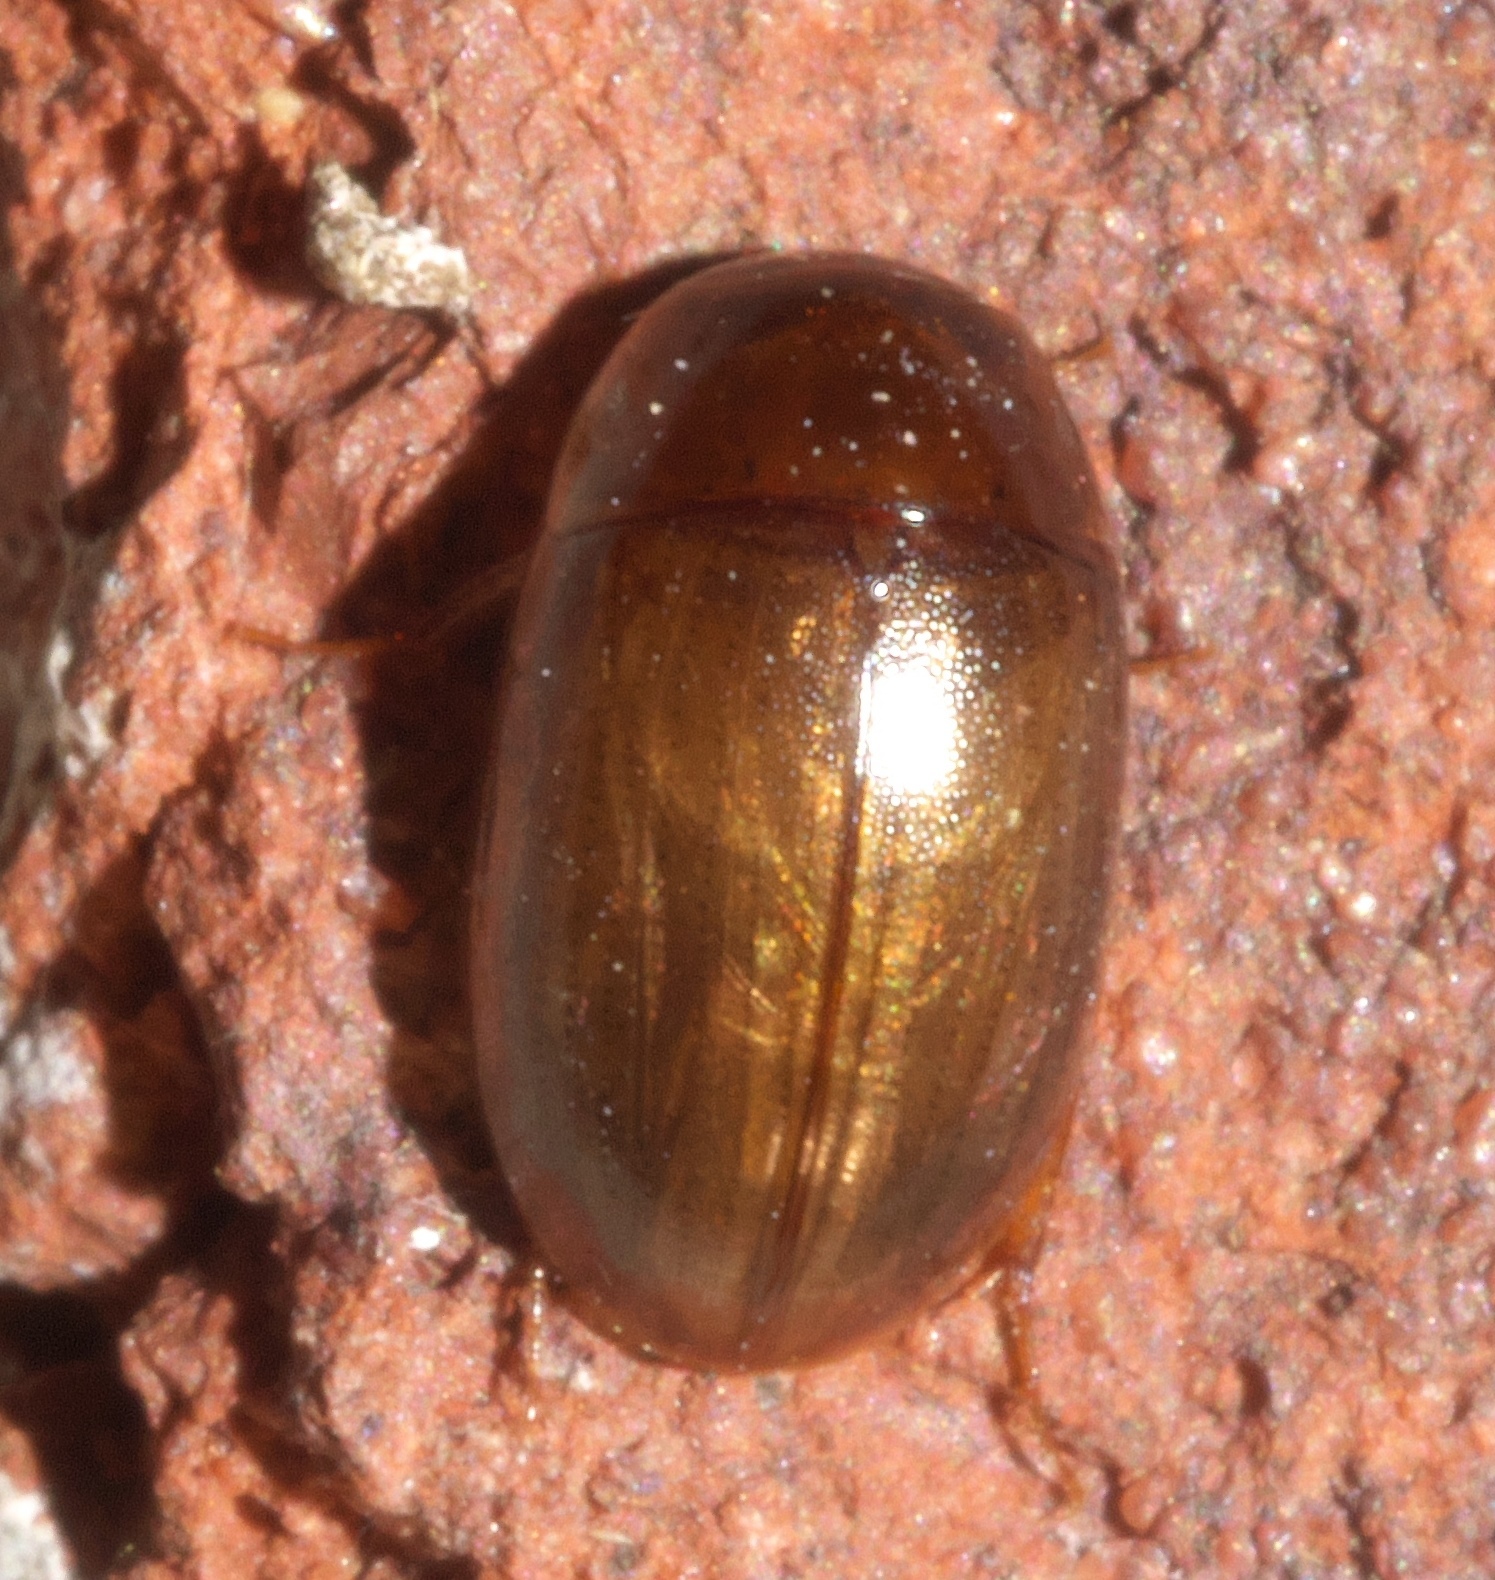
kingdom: Animalia
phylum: Arthropoda
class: Insecta
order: Coleoptera
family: Hydrophilidae
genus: Enochrus
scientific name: Enochrus
